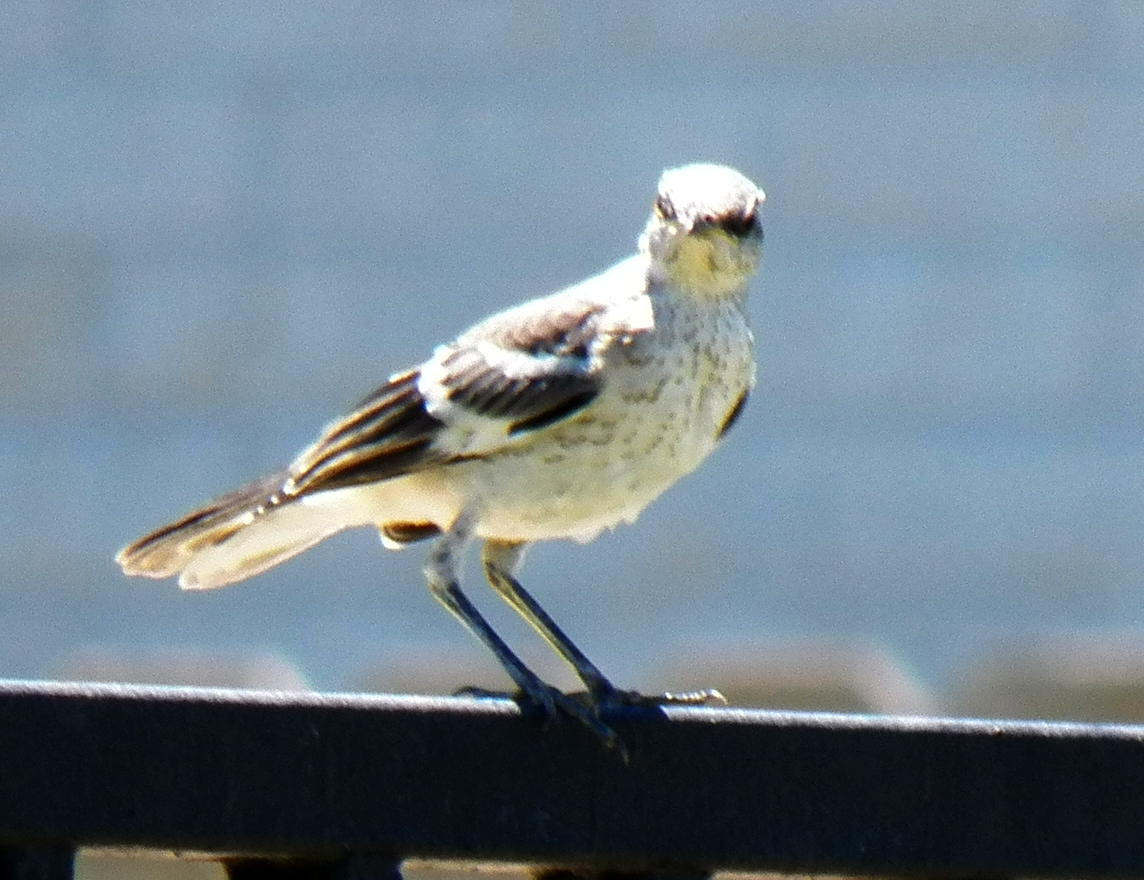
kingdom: Animalia
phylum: Chordata
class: Aves
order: Passeriformes
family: Mimidae
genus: Mimus
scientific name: Mimus polyglottos
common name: Northern mockingbird
